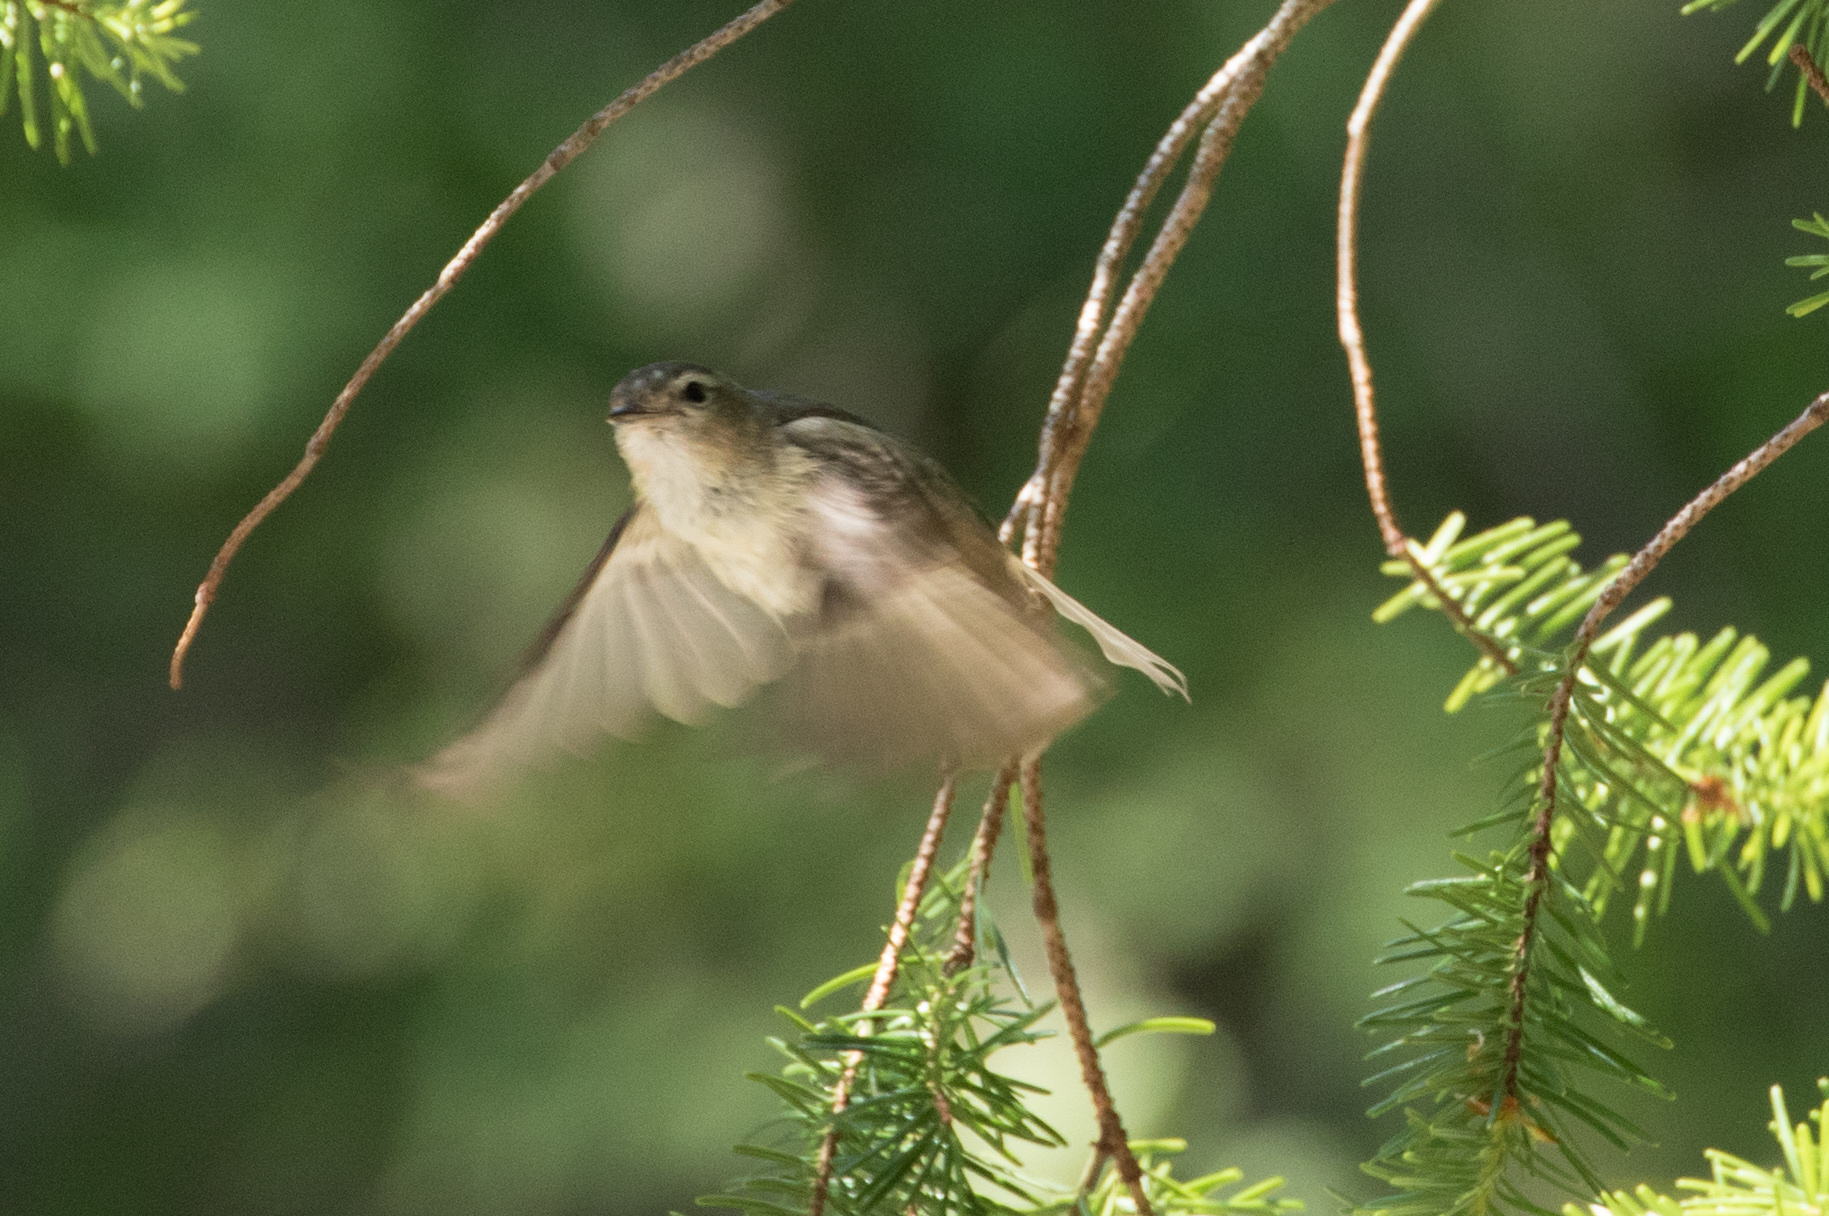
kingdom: Animalia
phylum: Chordata
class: Aves
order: Passeriformes
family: Vireonidae
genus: Vireo
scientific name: Vireo gilvus
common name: Warbling vireo
